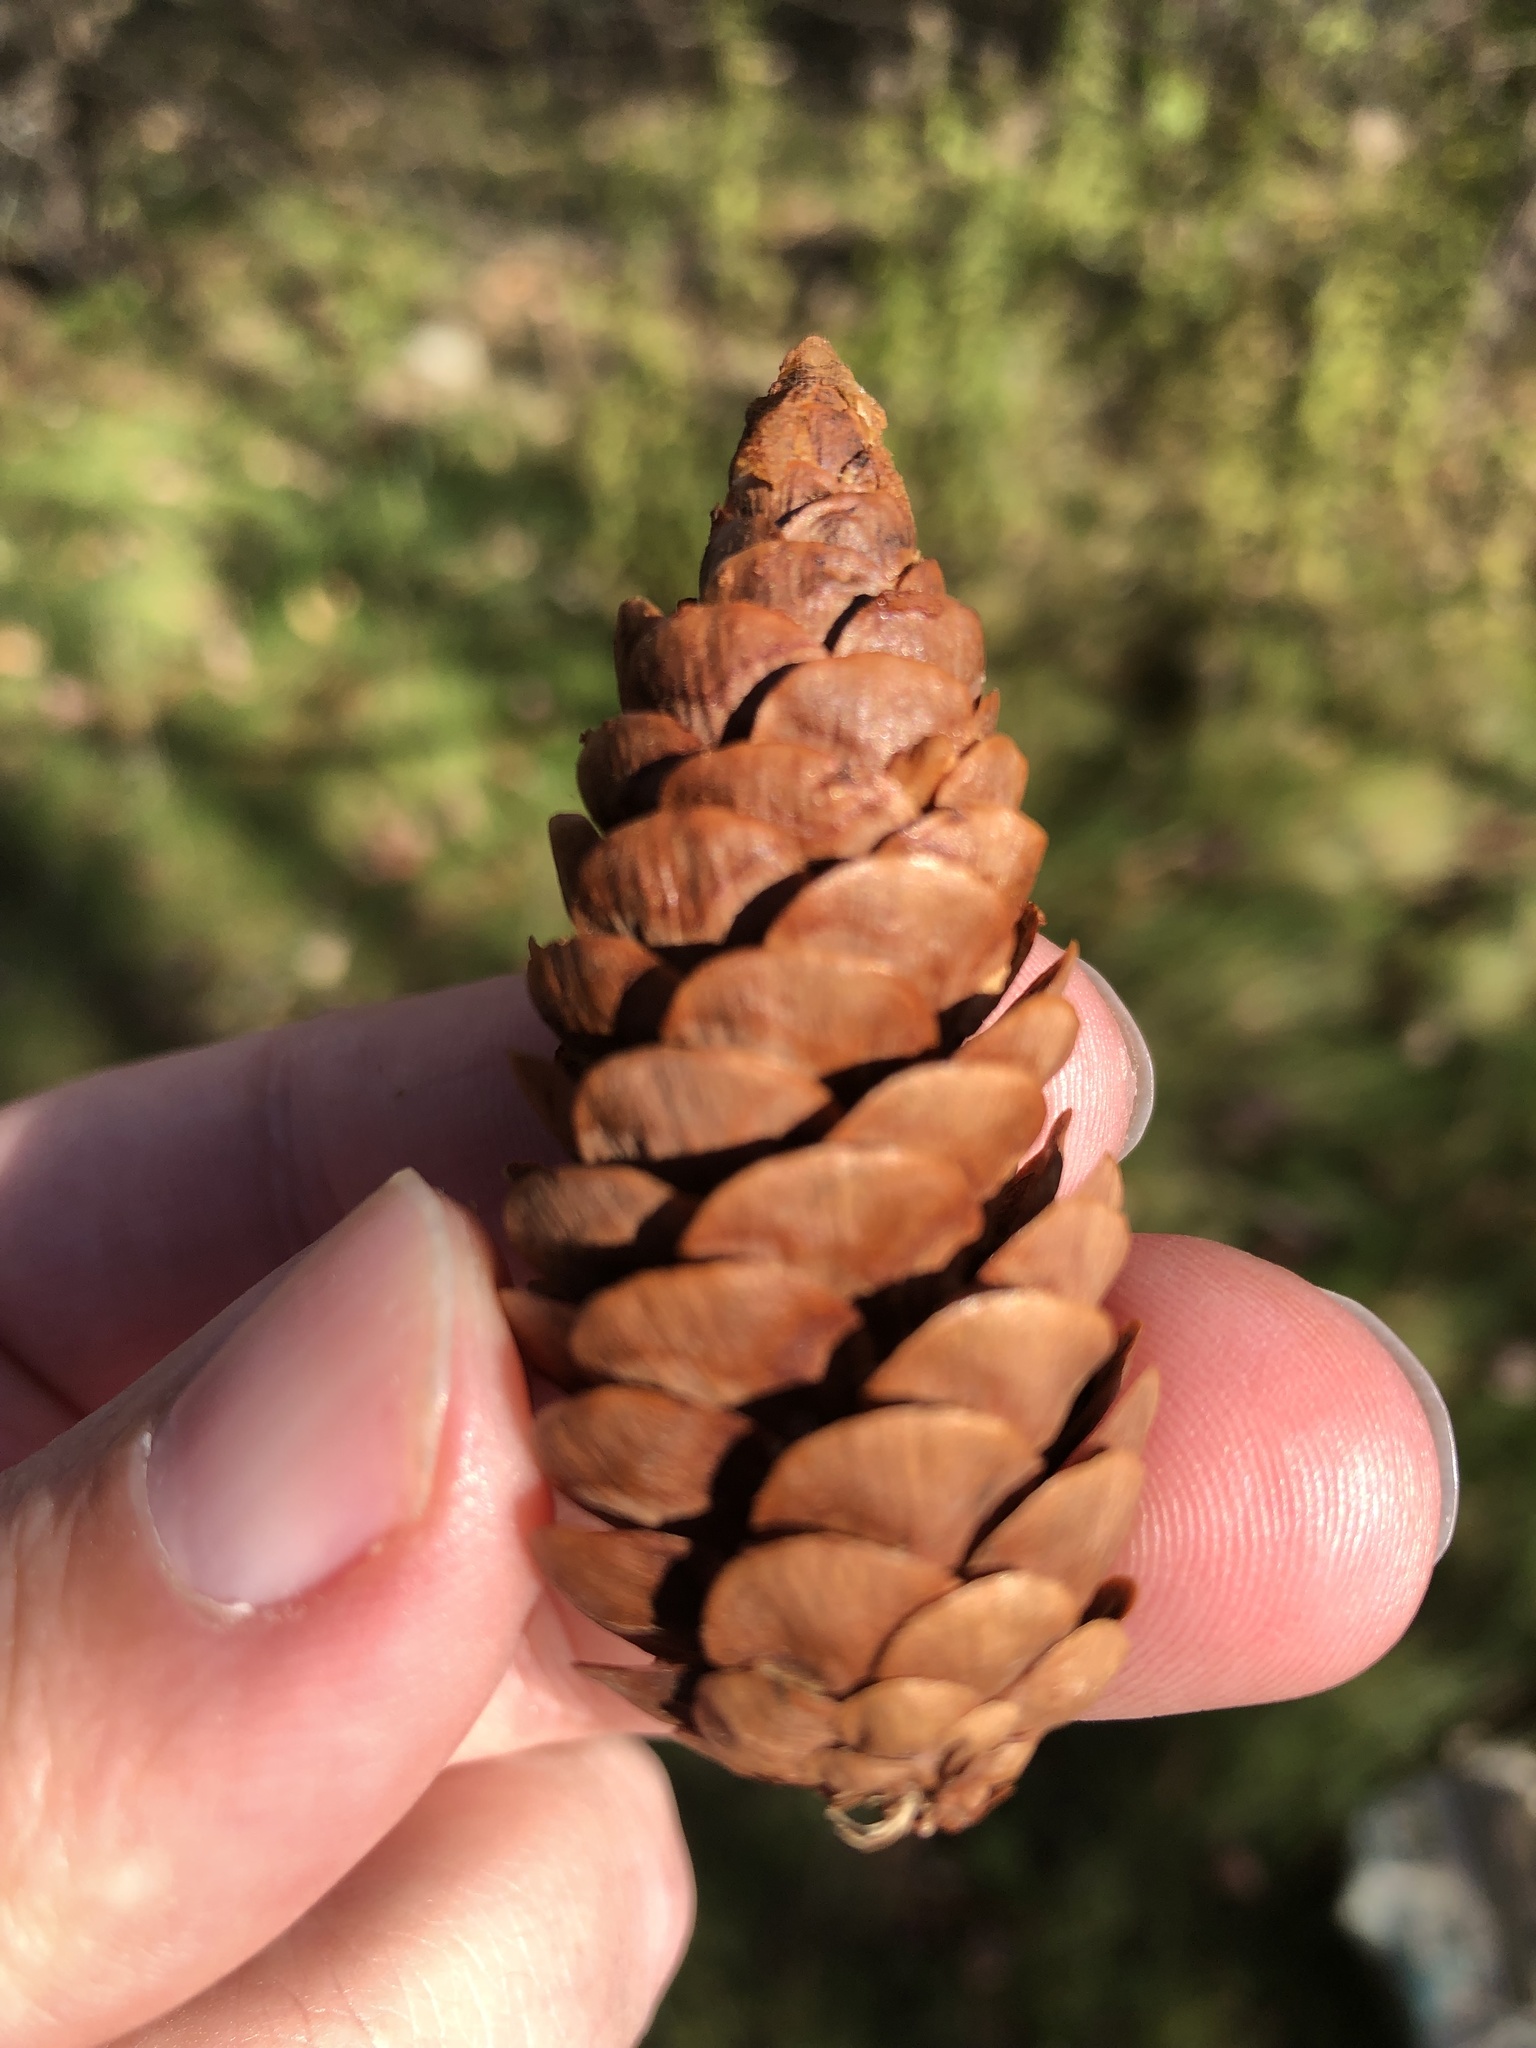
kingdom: Plantae
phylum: Tracheophyta
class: Pinopsida
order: Pinales
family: Pinaceae
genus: Picea
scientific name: Picea glauca
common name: White spruce
